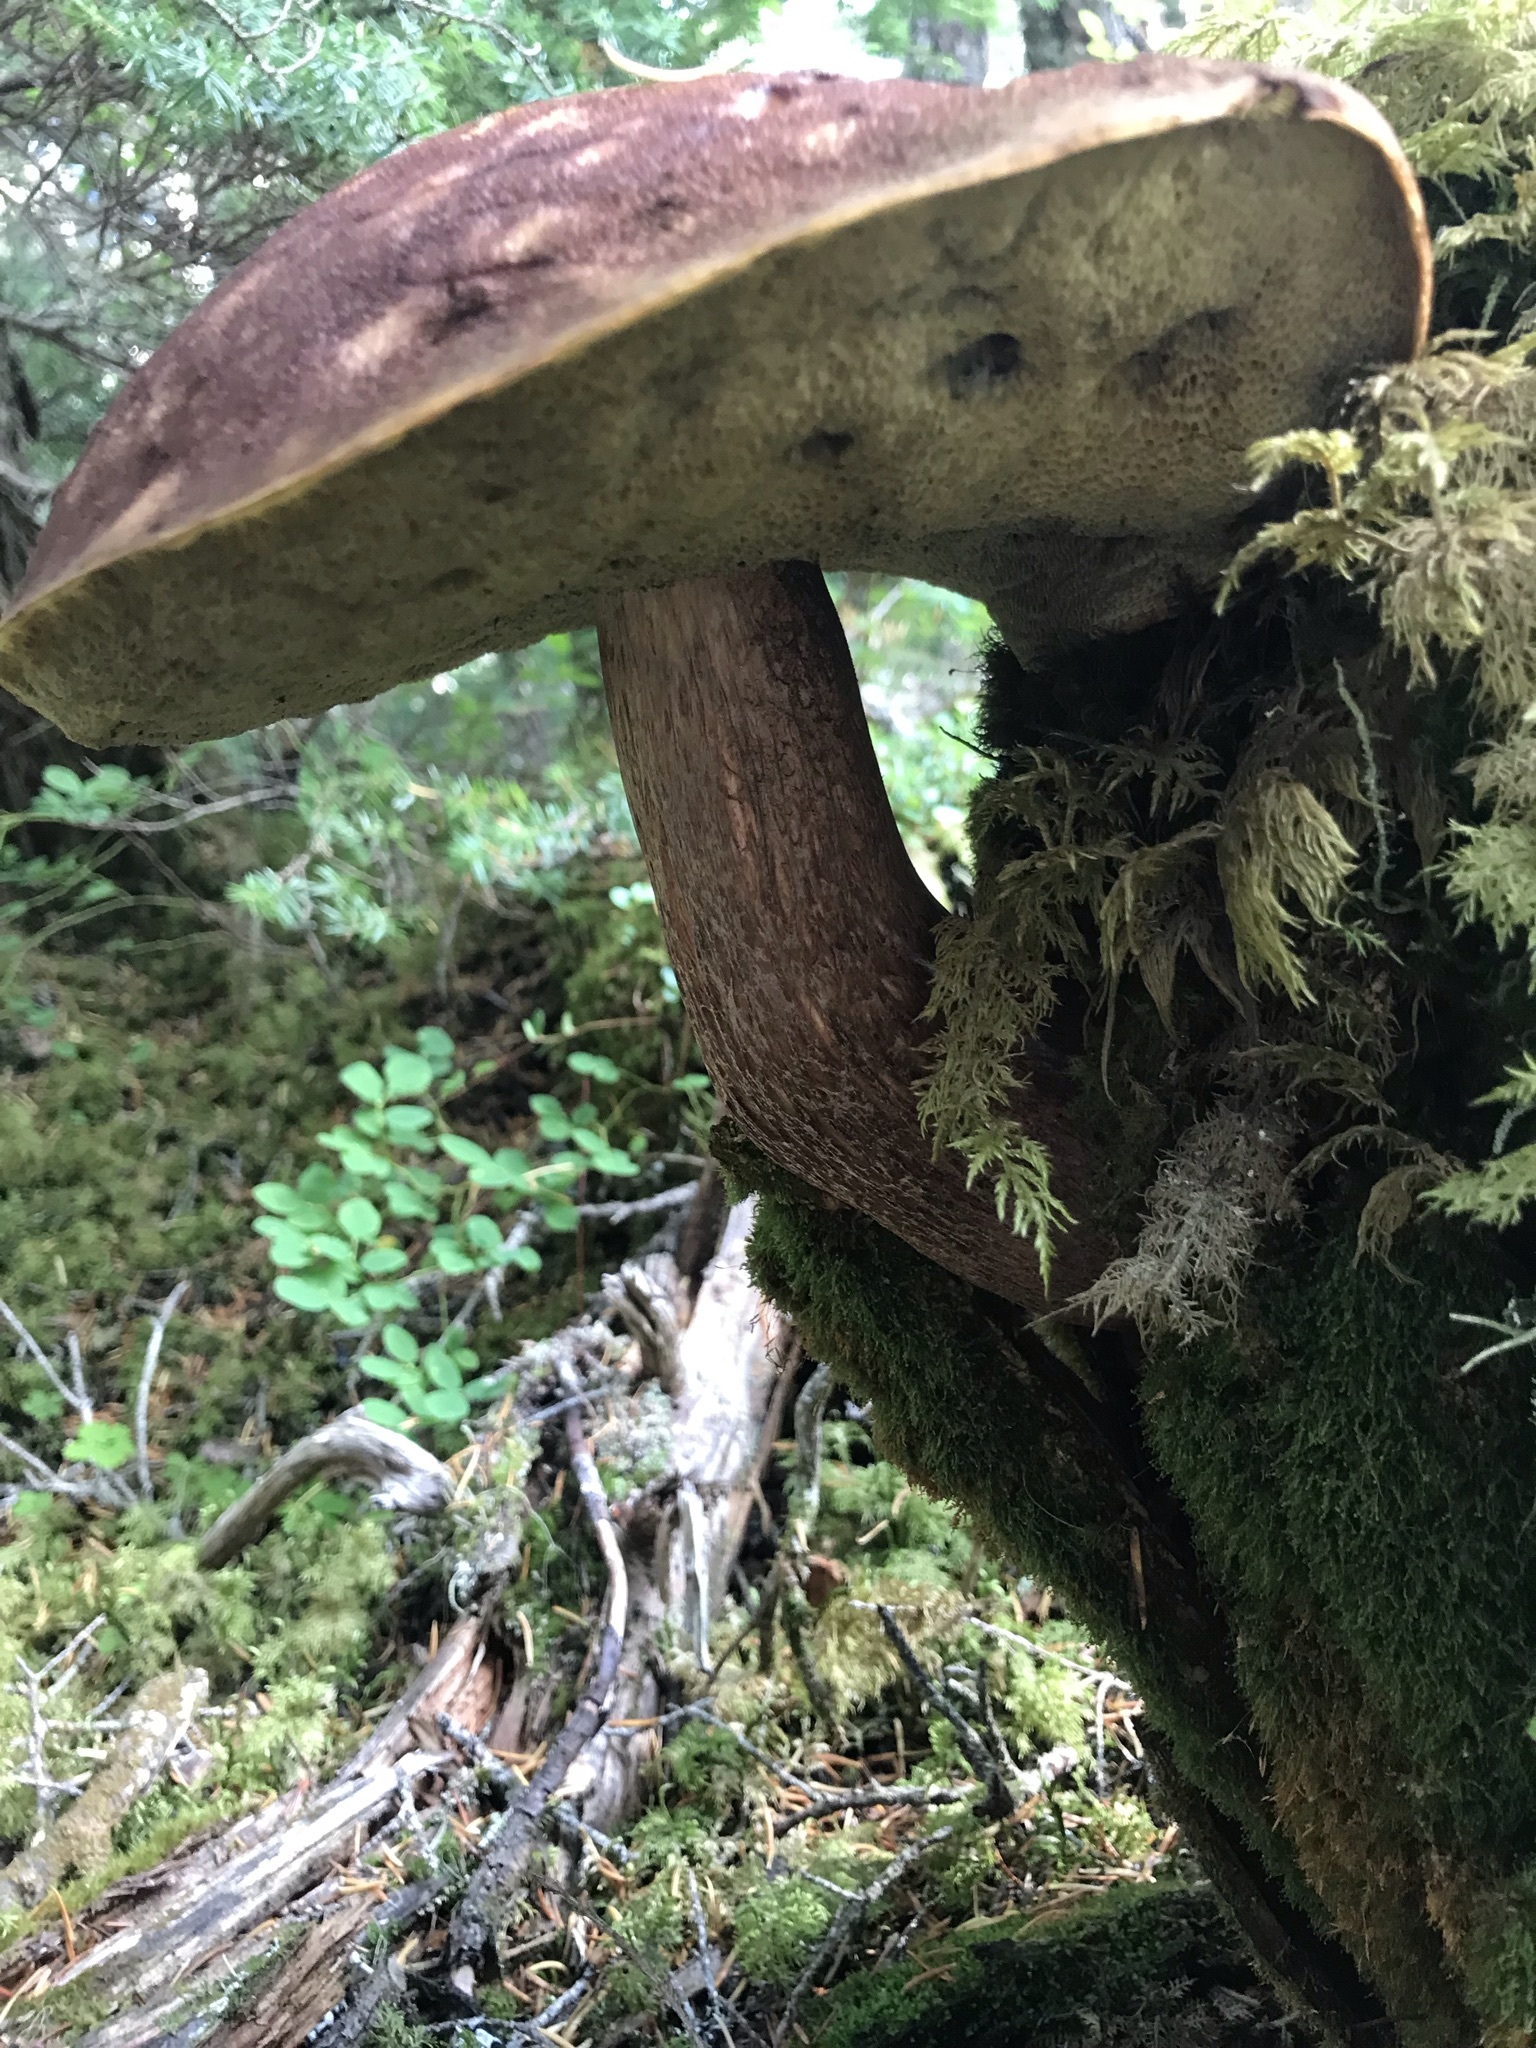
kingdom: Fungi
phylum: Basidiomycota
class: Agaricomycetes
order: Boletales
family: Boletaceae
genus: Aureoboletus
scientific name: Aureoboletus mirabilis
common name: Admirable bolete
